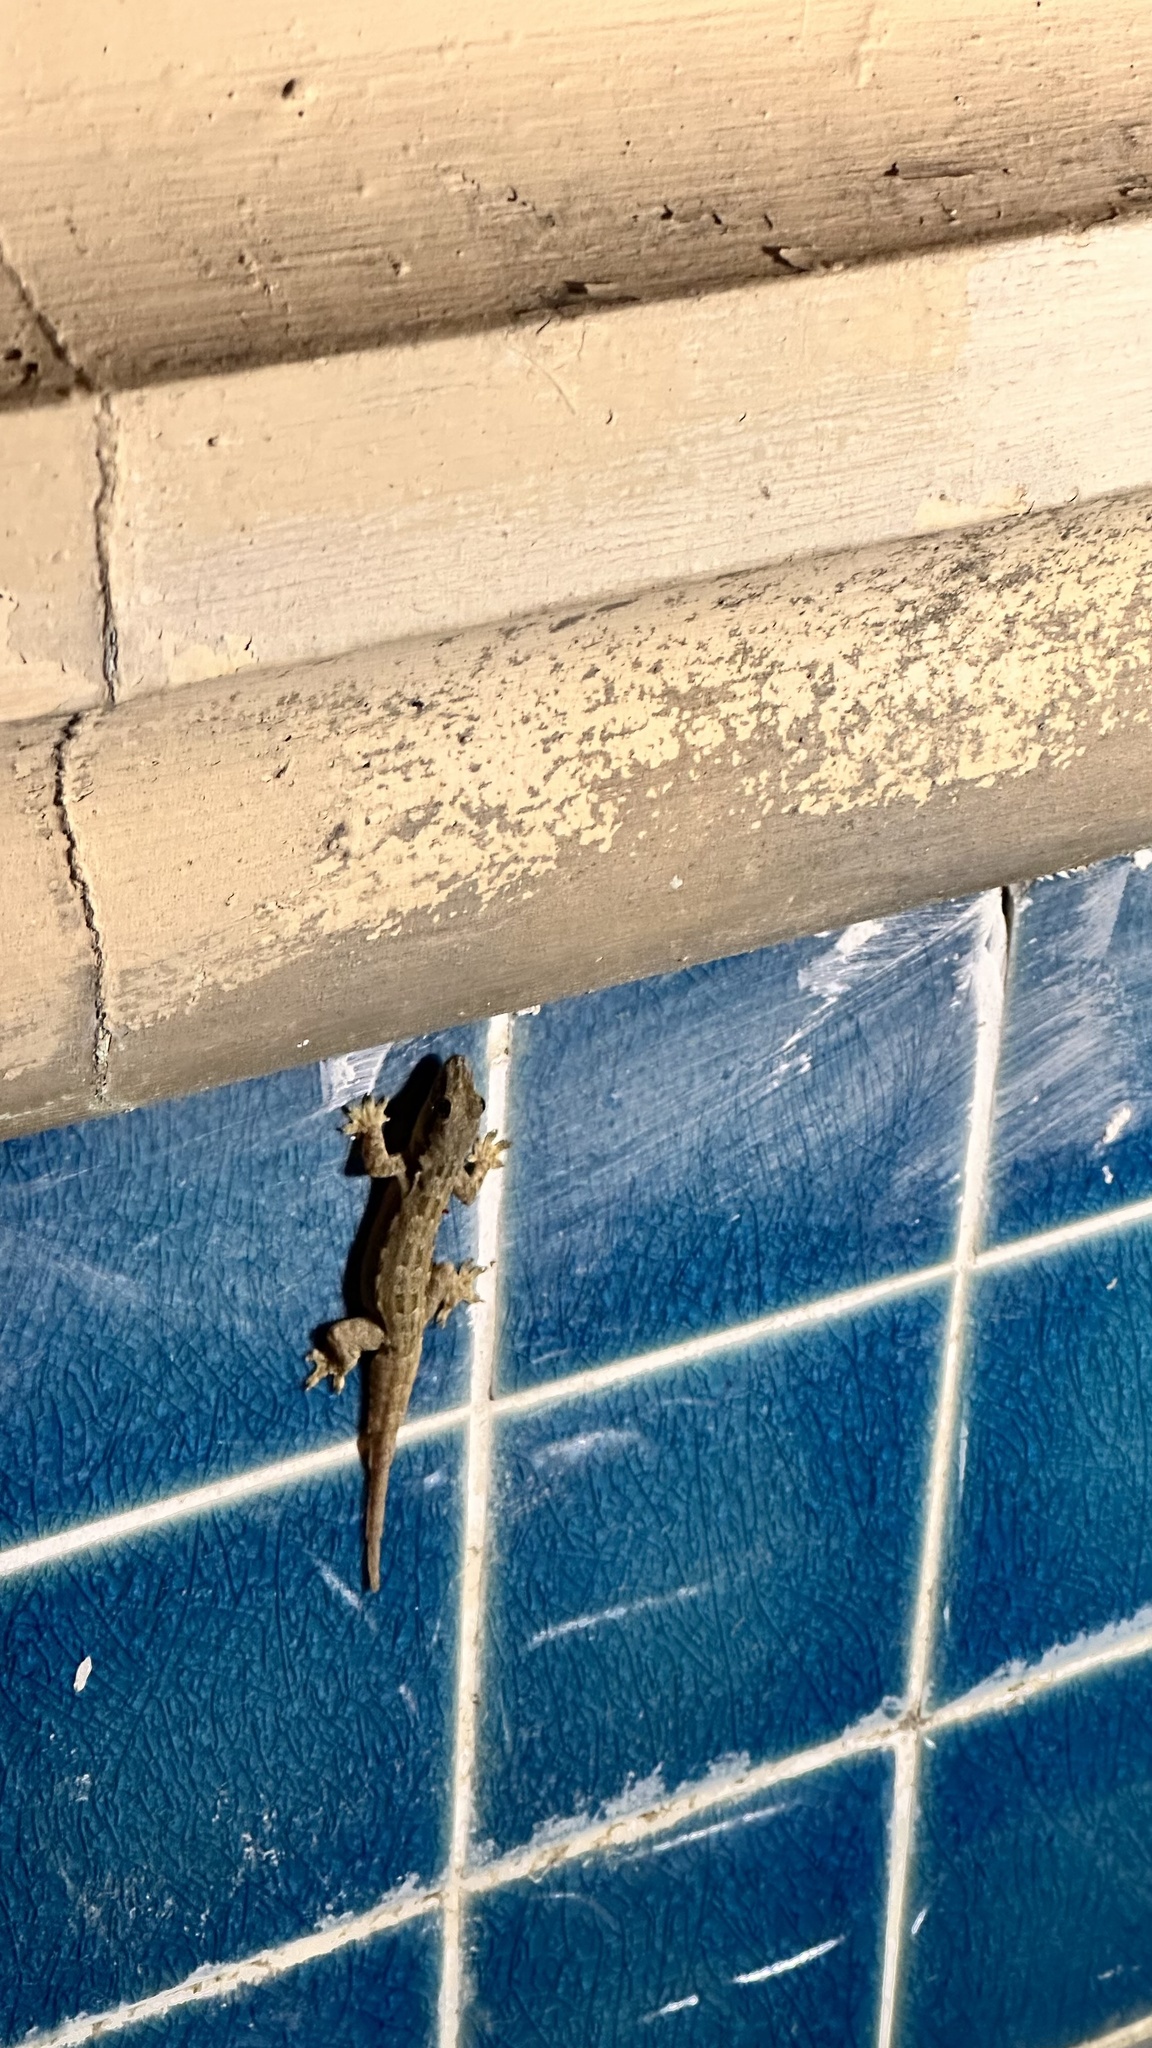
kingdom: Animalia
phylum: Chordata
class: Squamata
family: Gekkonidae
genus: Hemidactylus
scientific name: Hemidactylus platyurus
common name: Flat-tailed house gecko
